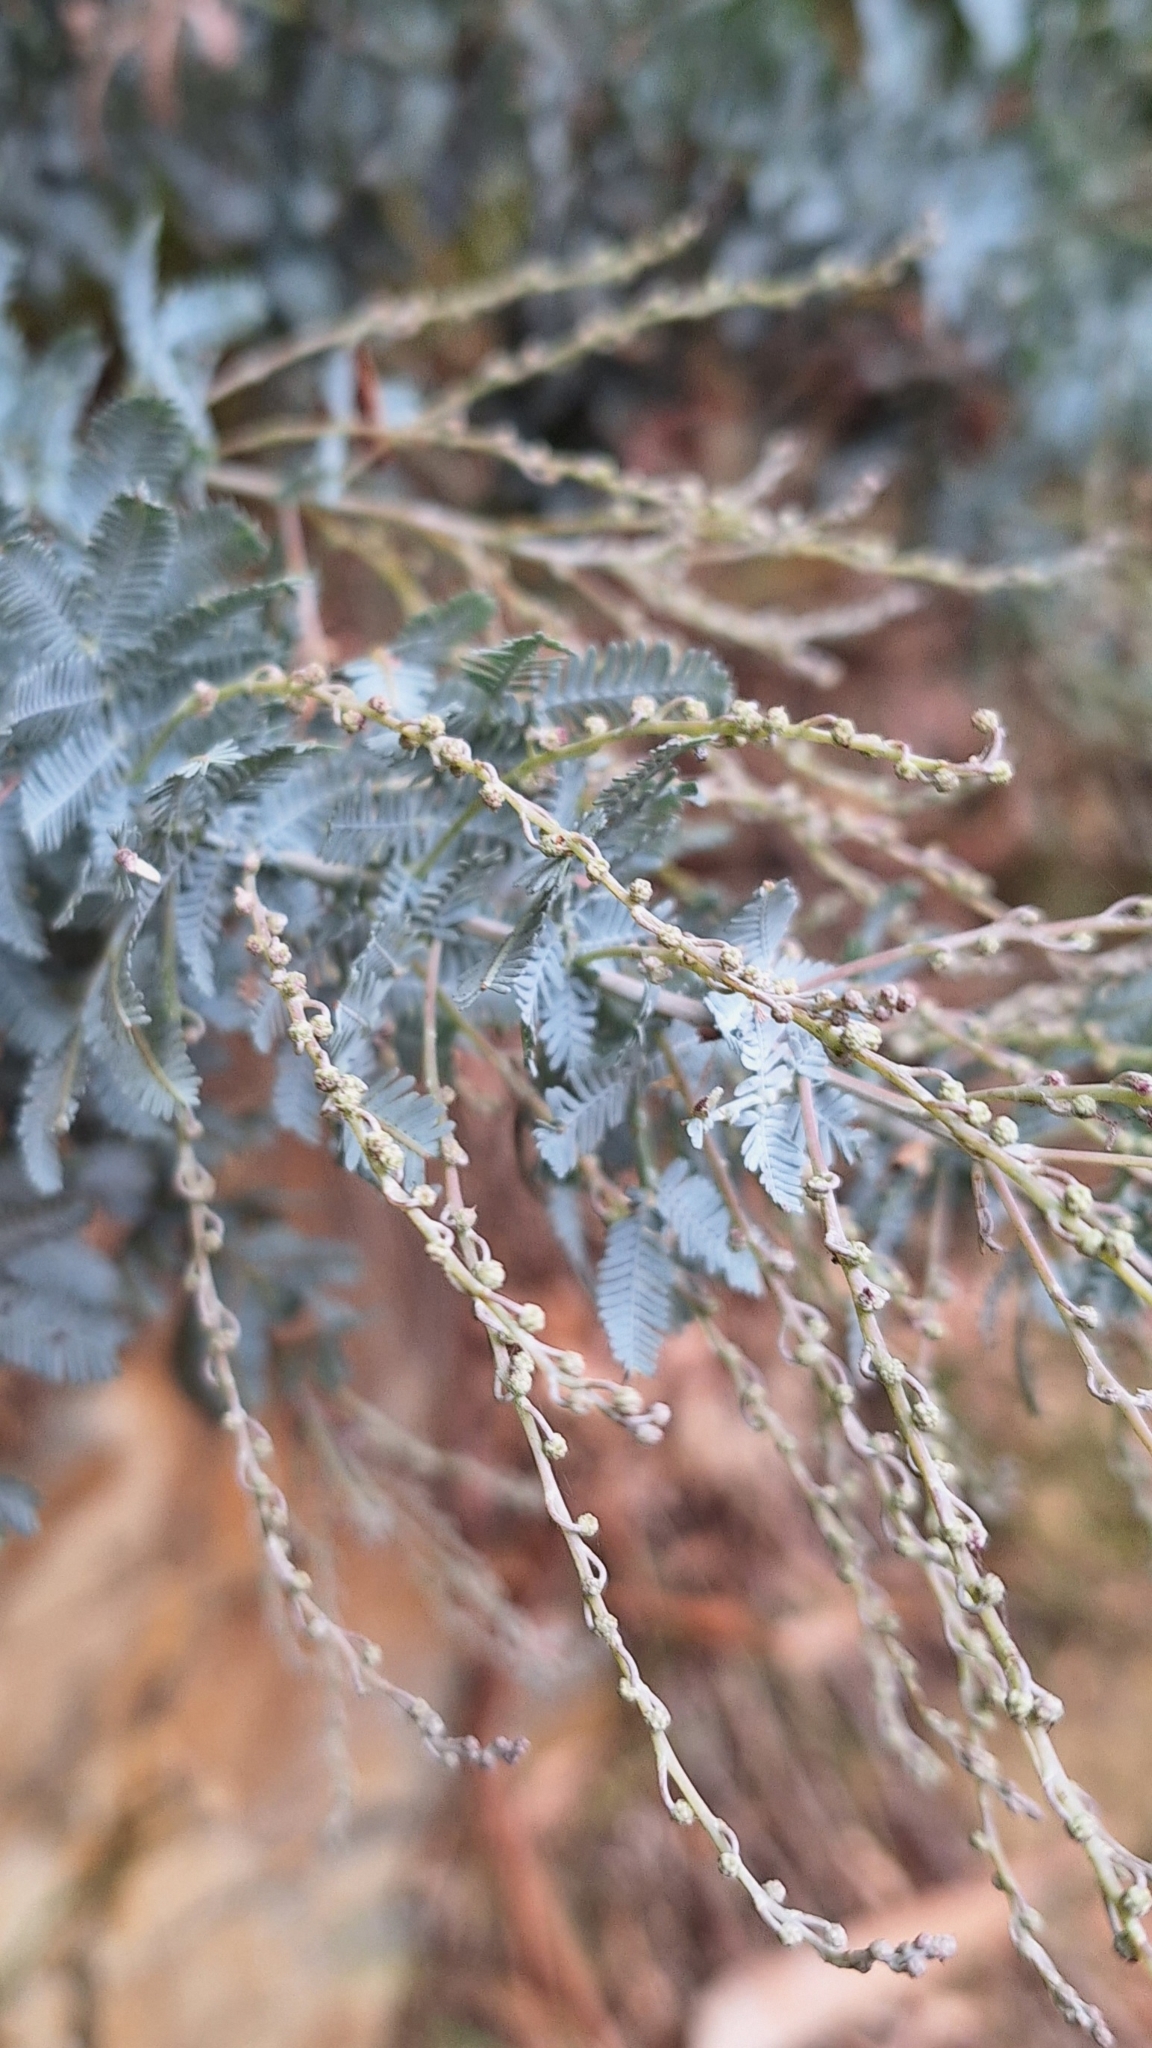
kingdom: Plantae
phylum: Tracheophyta
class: Magnoliopsida
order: Fabales
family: Fabaceae
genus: Acacia
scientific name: Acacia baileyana
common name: Cootamundra wattle
